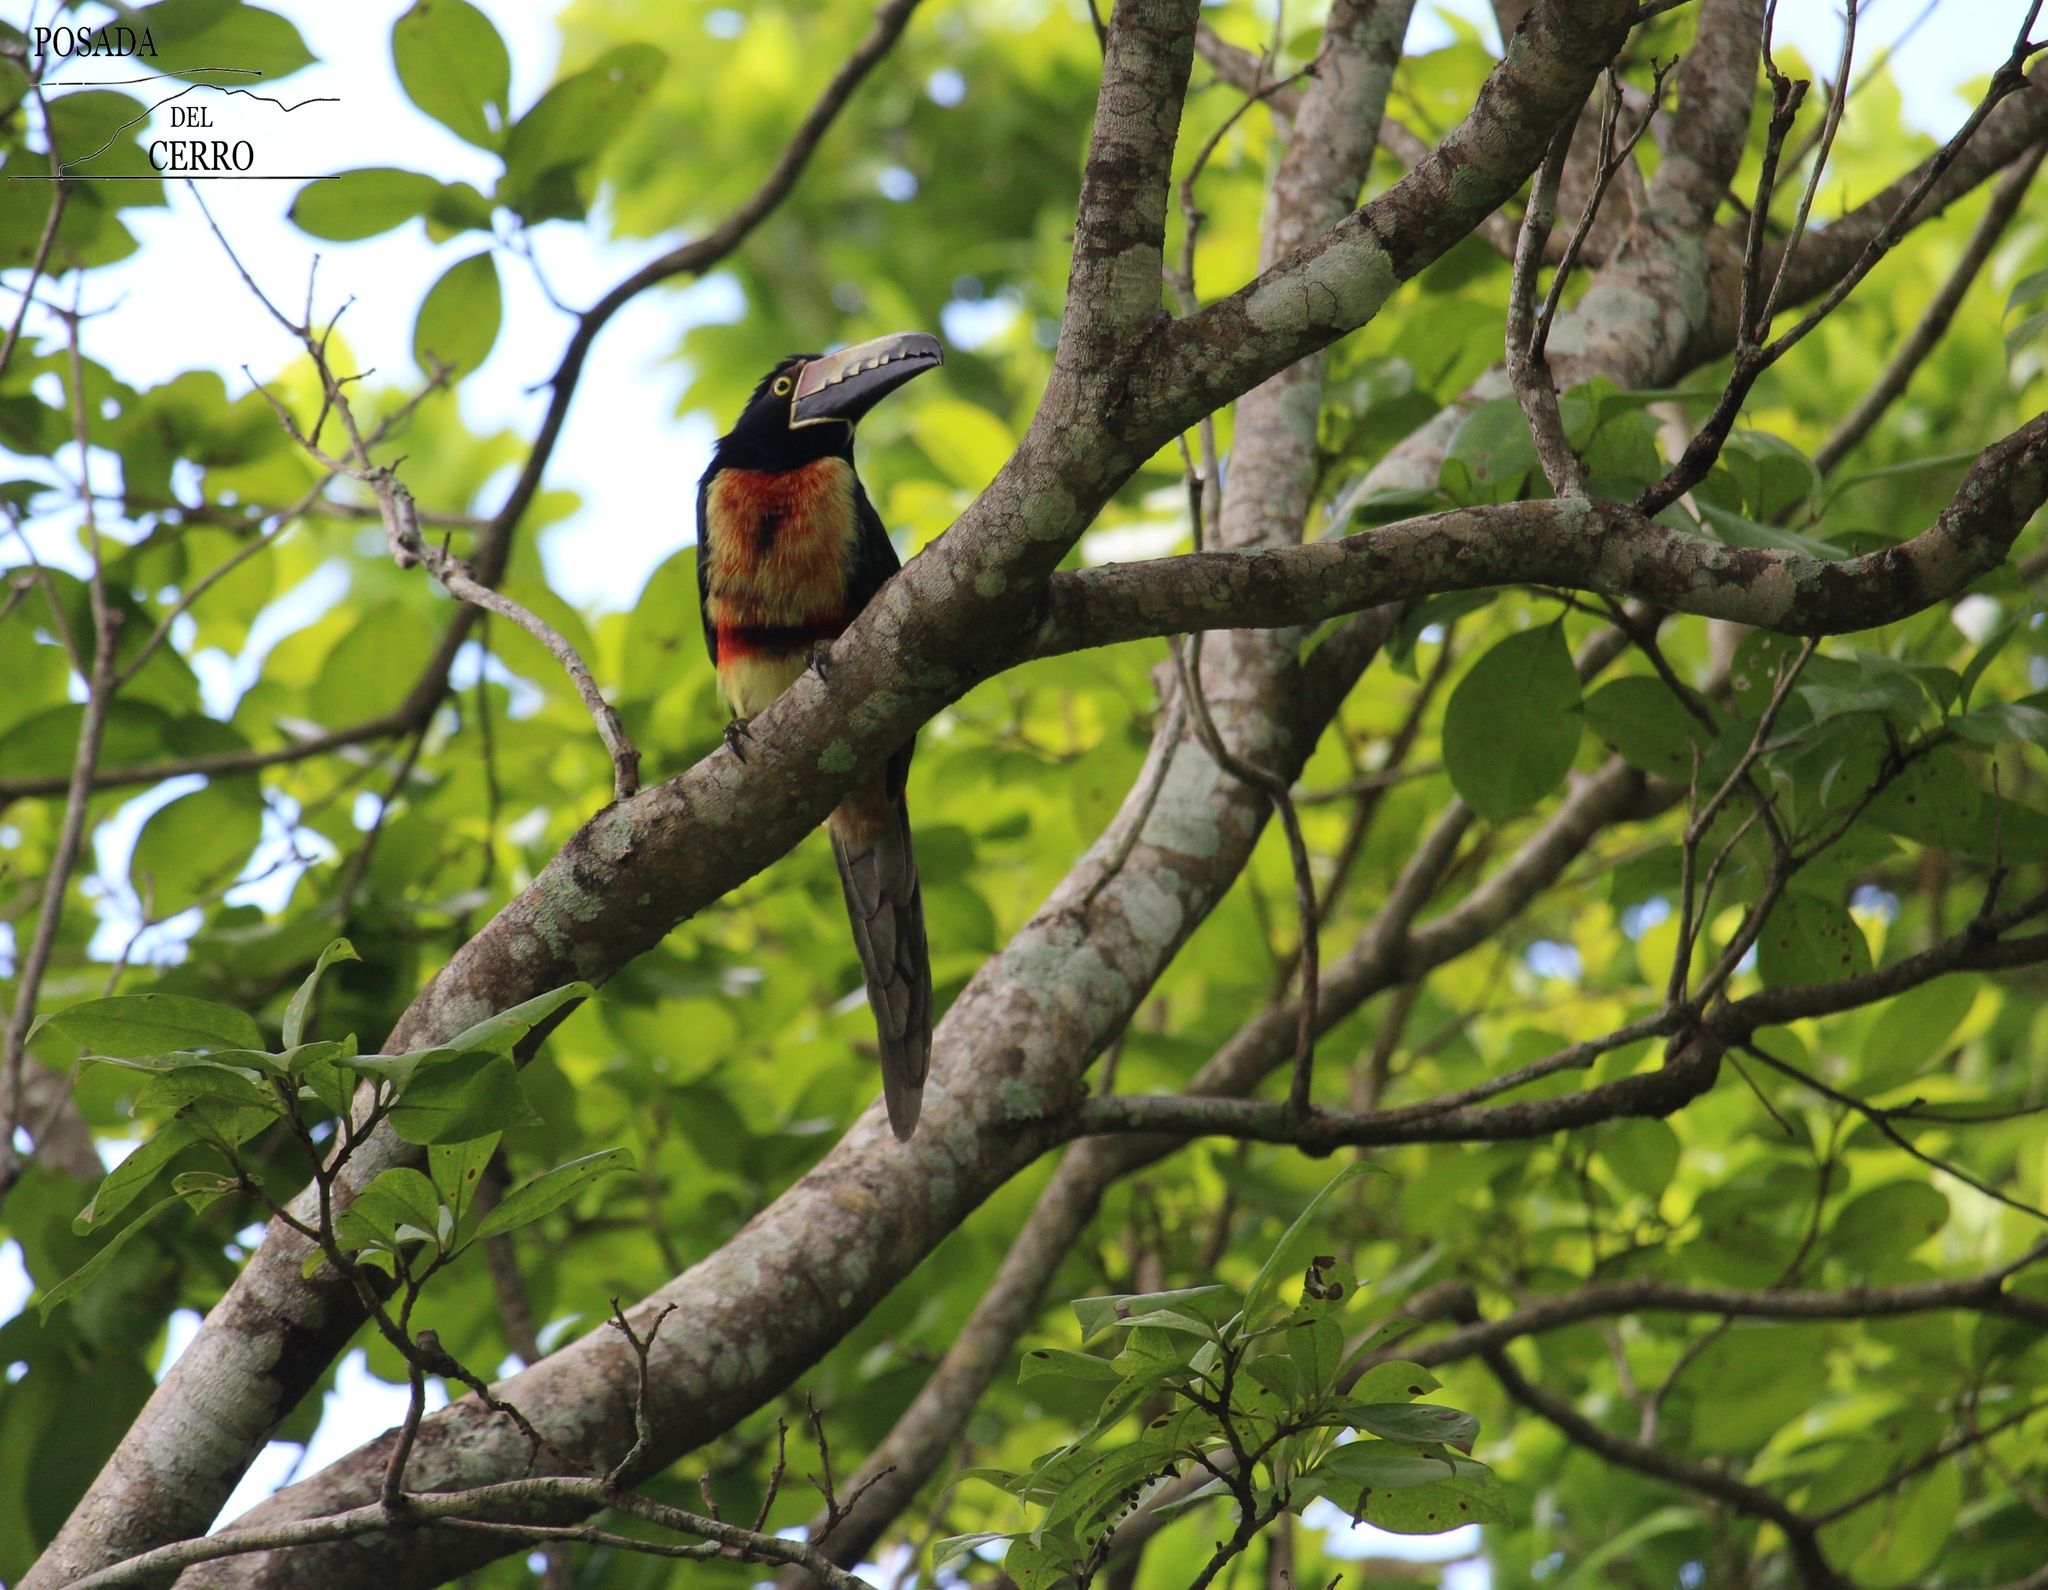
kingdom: Animalia
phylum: Chordata
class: Aves
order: Piciformes
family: Ramphastidae
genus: Pteroglossus
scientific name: Pteroglossus torquatus
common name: Collared aracari
